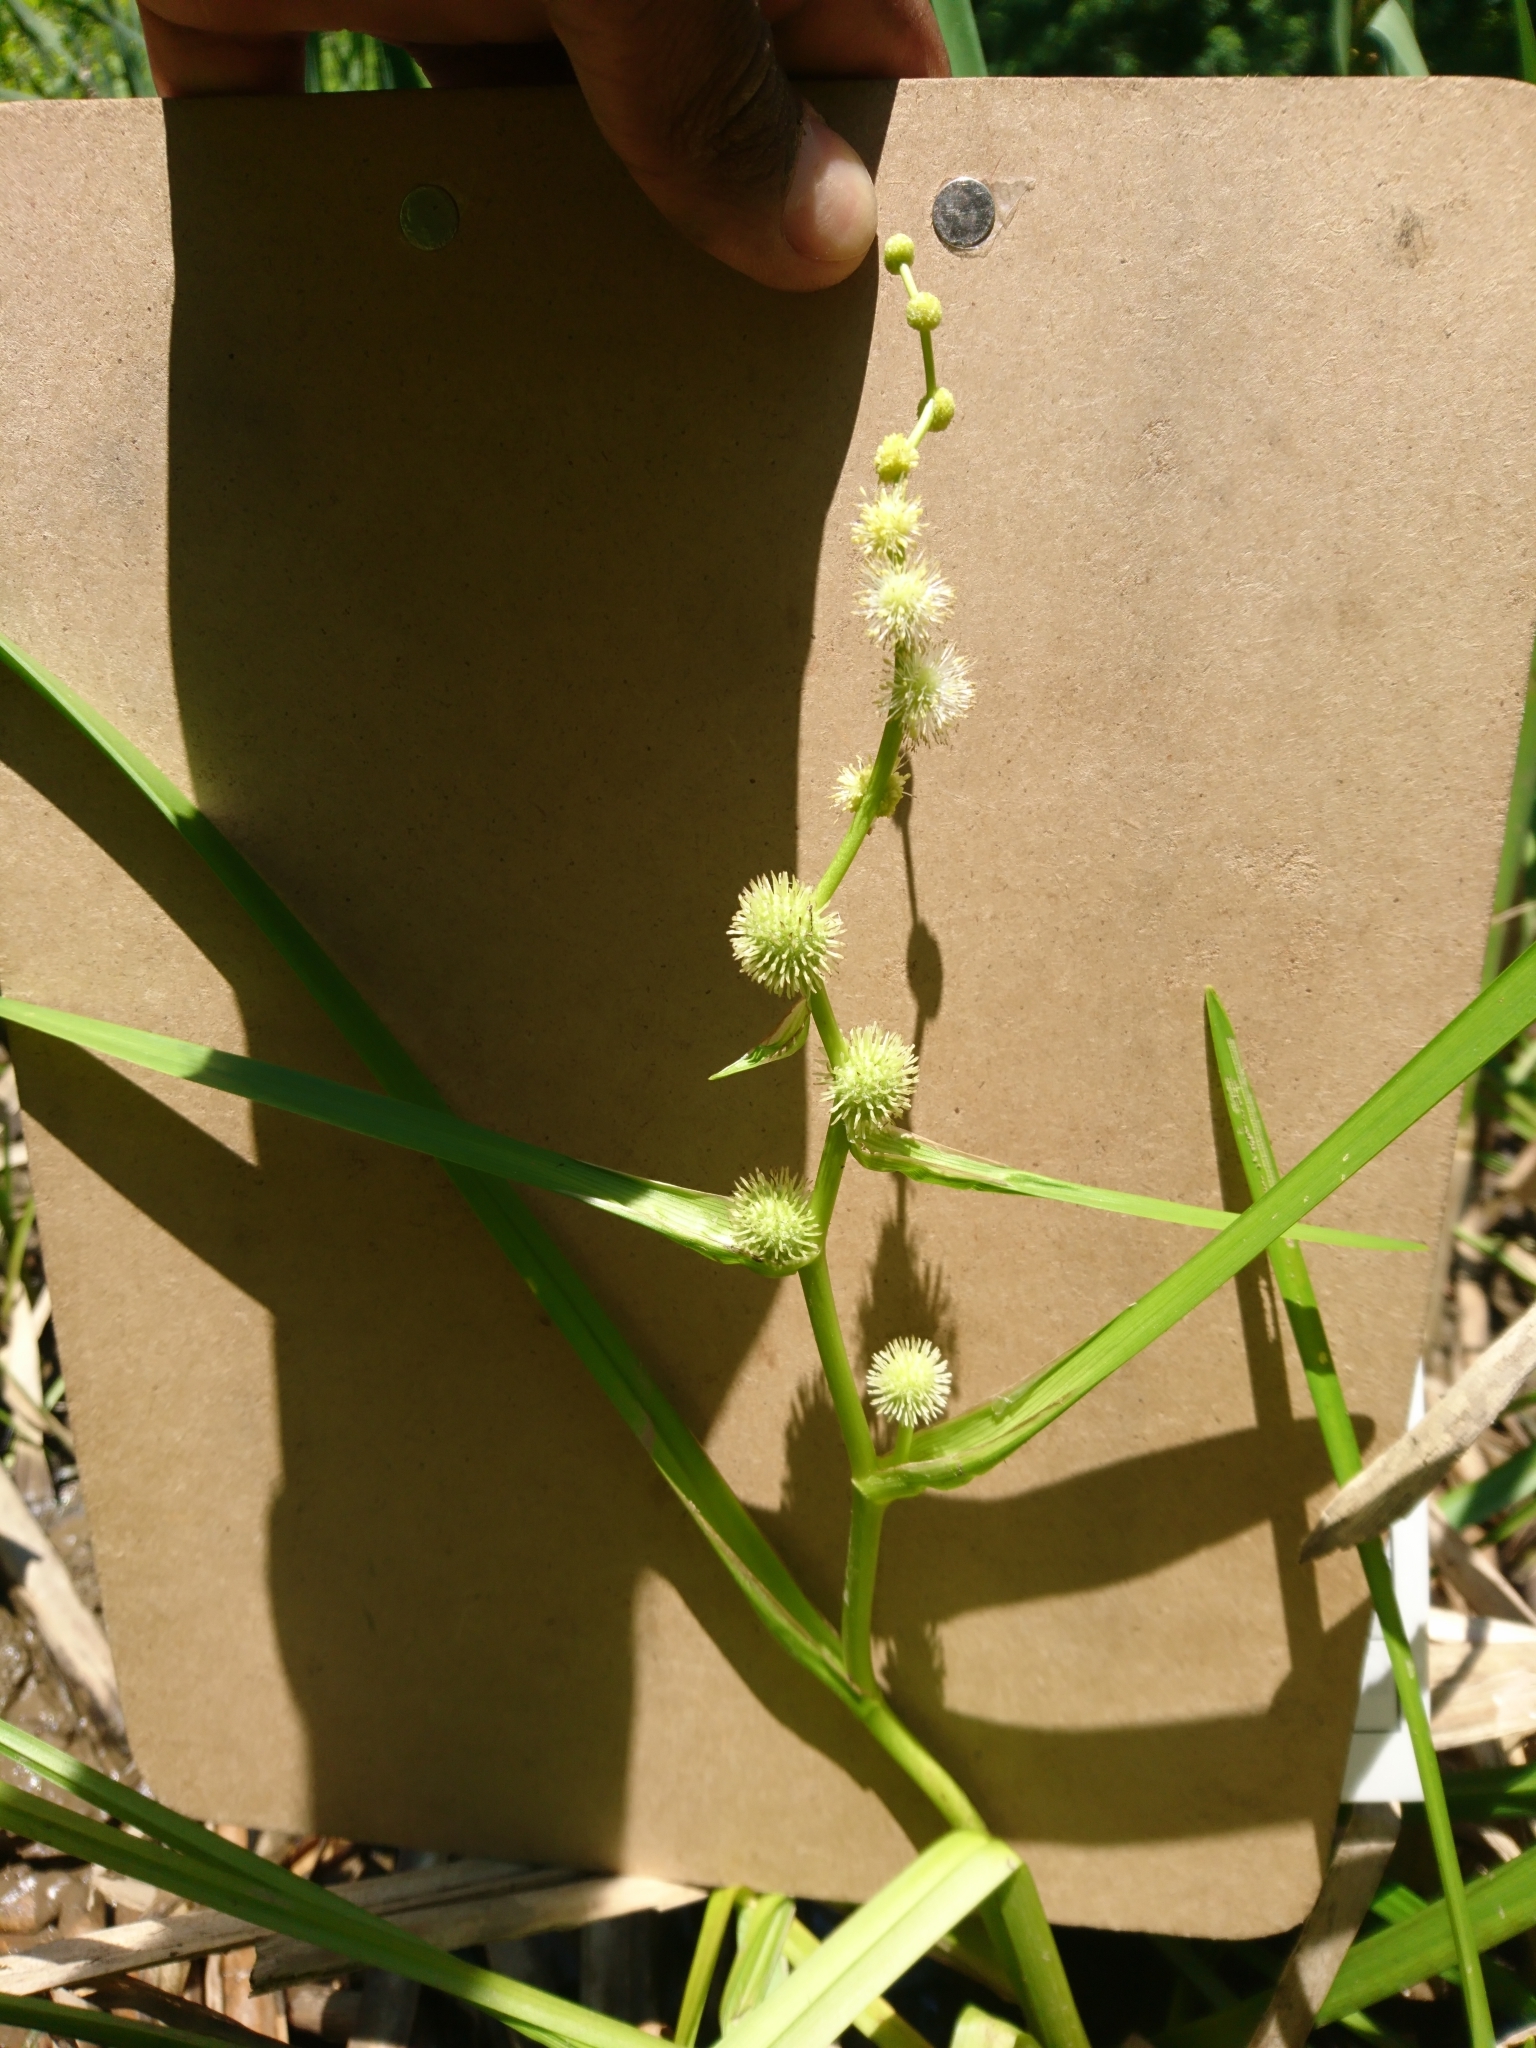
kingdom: Plantae
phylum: Tracheophyta
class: Liliopsida
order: Poales
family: Typhaceae
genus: Sparganium
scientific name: Sparganium americanum
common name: American burreed
